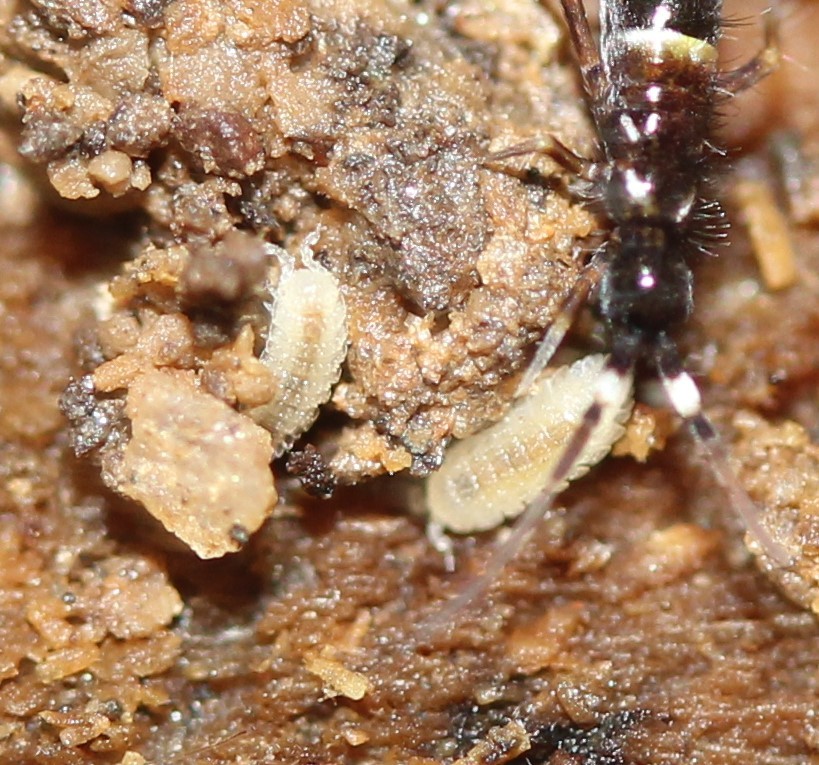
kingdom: Animalia
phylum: Arthropoda
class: Malacostraca
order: Isopoda
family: Trichoniscidae
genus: Haplophthalmus
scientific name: Haplophthalmus danicus
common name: Pillbug
